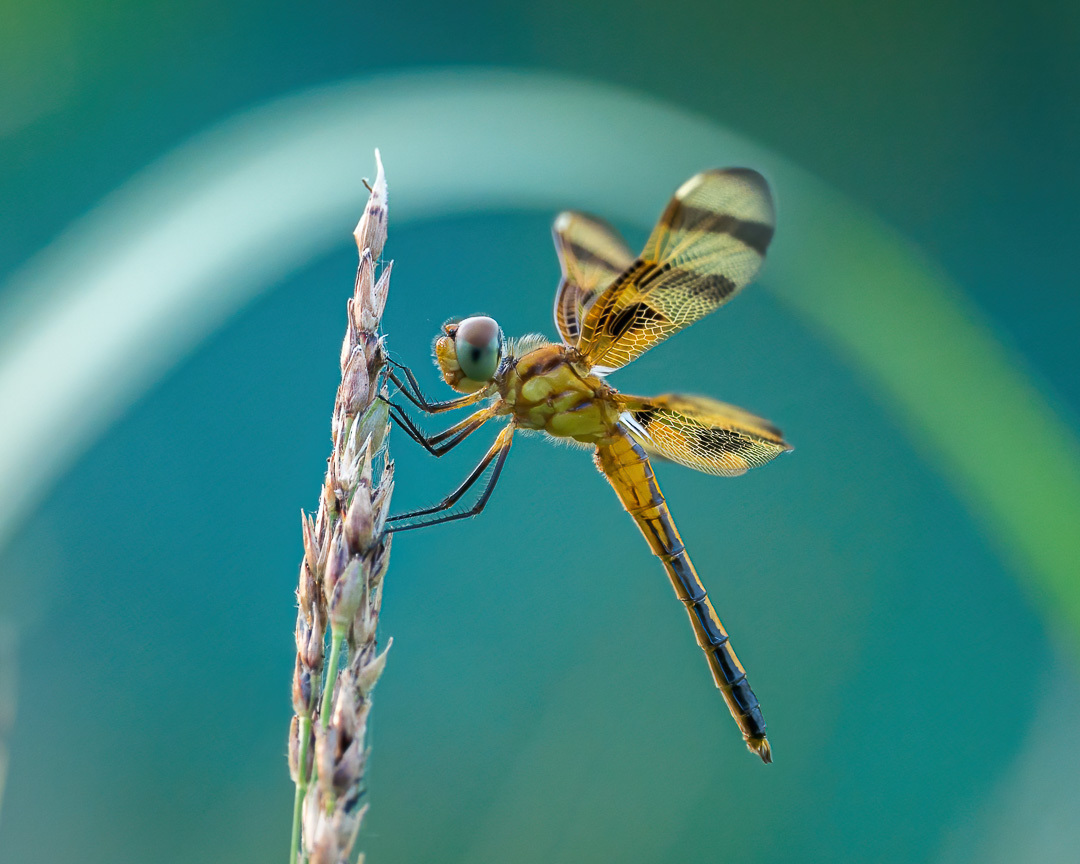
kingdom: Animalia
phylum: Arthropoda
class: Insecta
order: Odonata
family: Libellulidae
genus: Celithemis
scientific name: Celithemis eponina
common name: Halloween pennant
